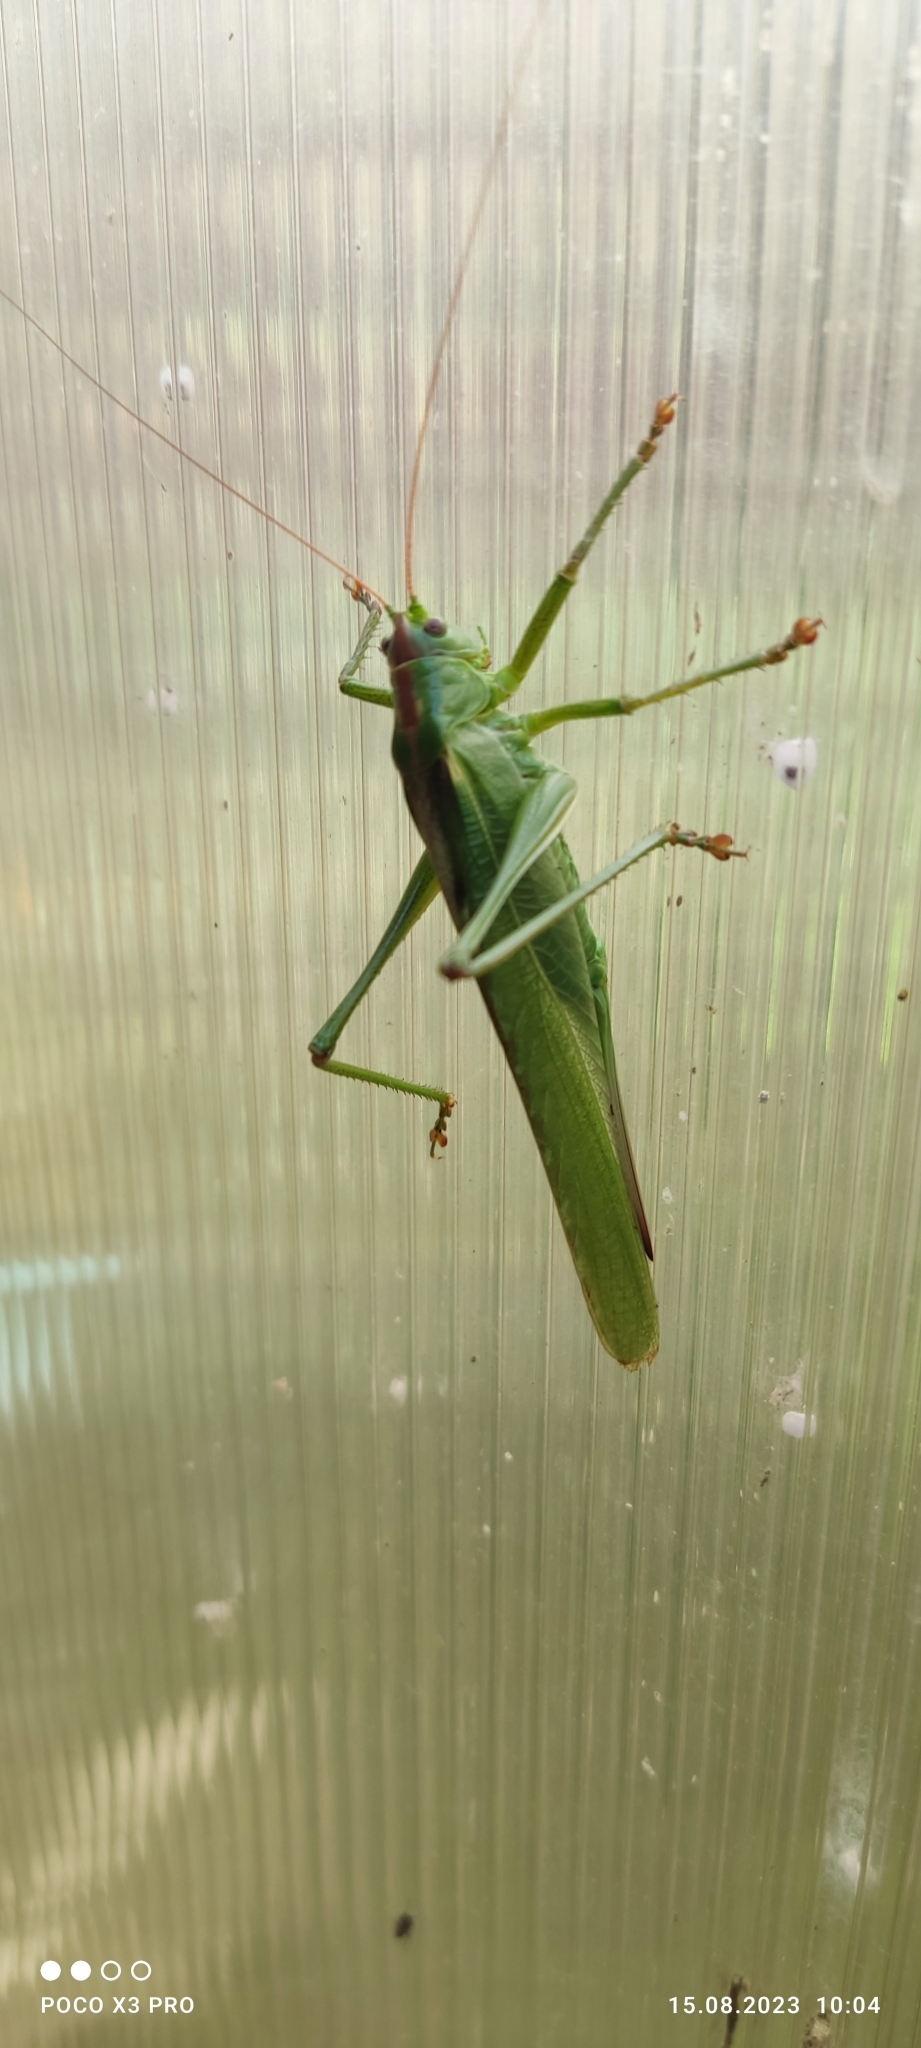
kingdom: Animalia
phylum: Arthropoda
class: Insecta
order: Orthoptera
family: Tettigoniidae
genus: Tettigonia
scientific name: Tettigonia viridissima
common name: Great green bush-cricket
